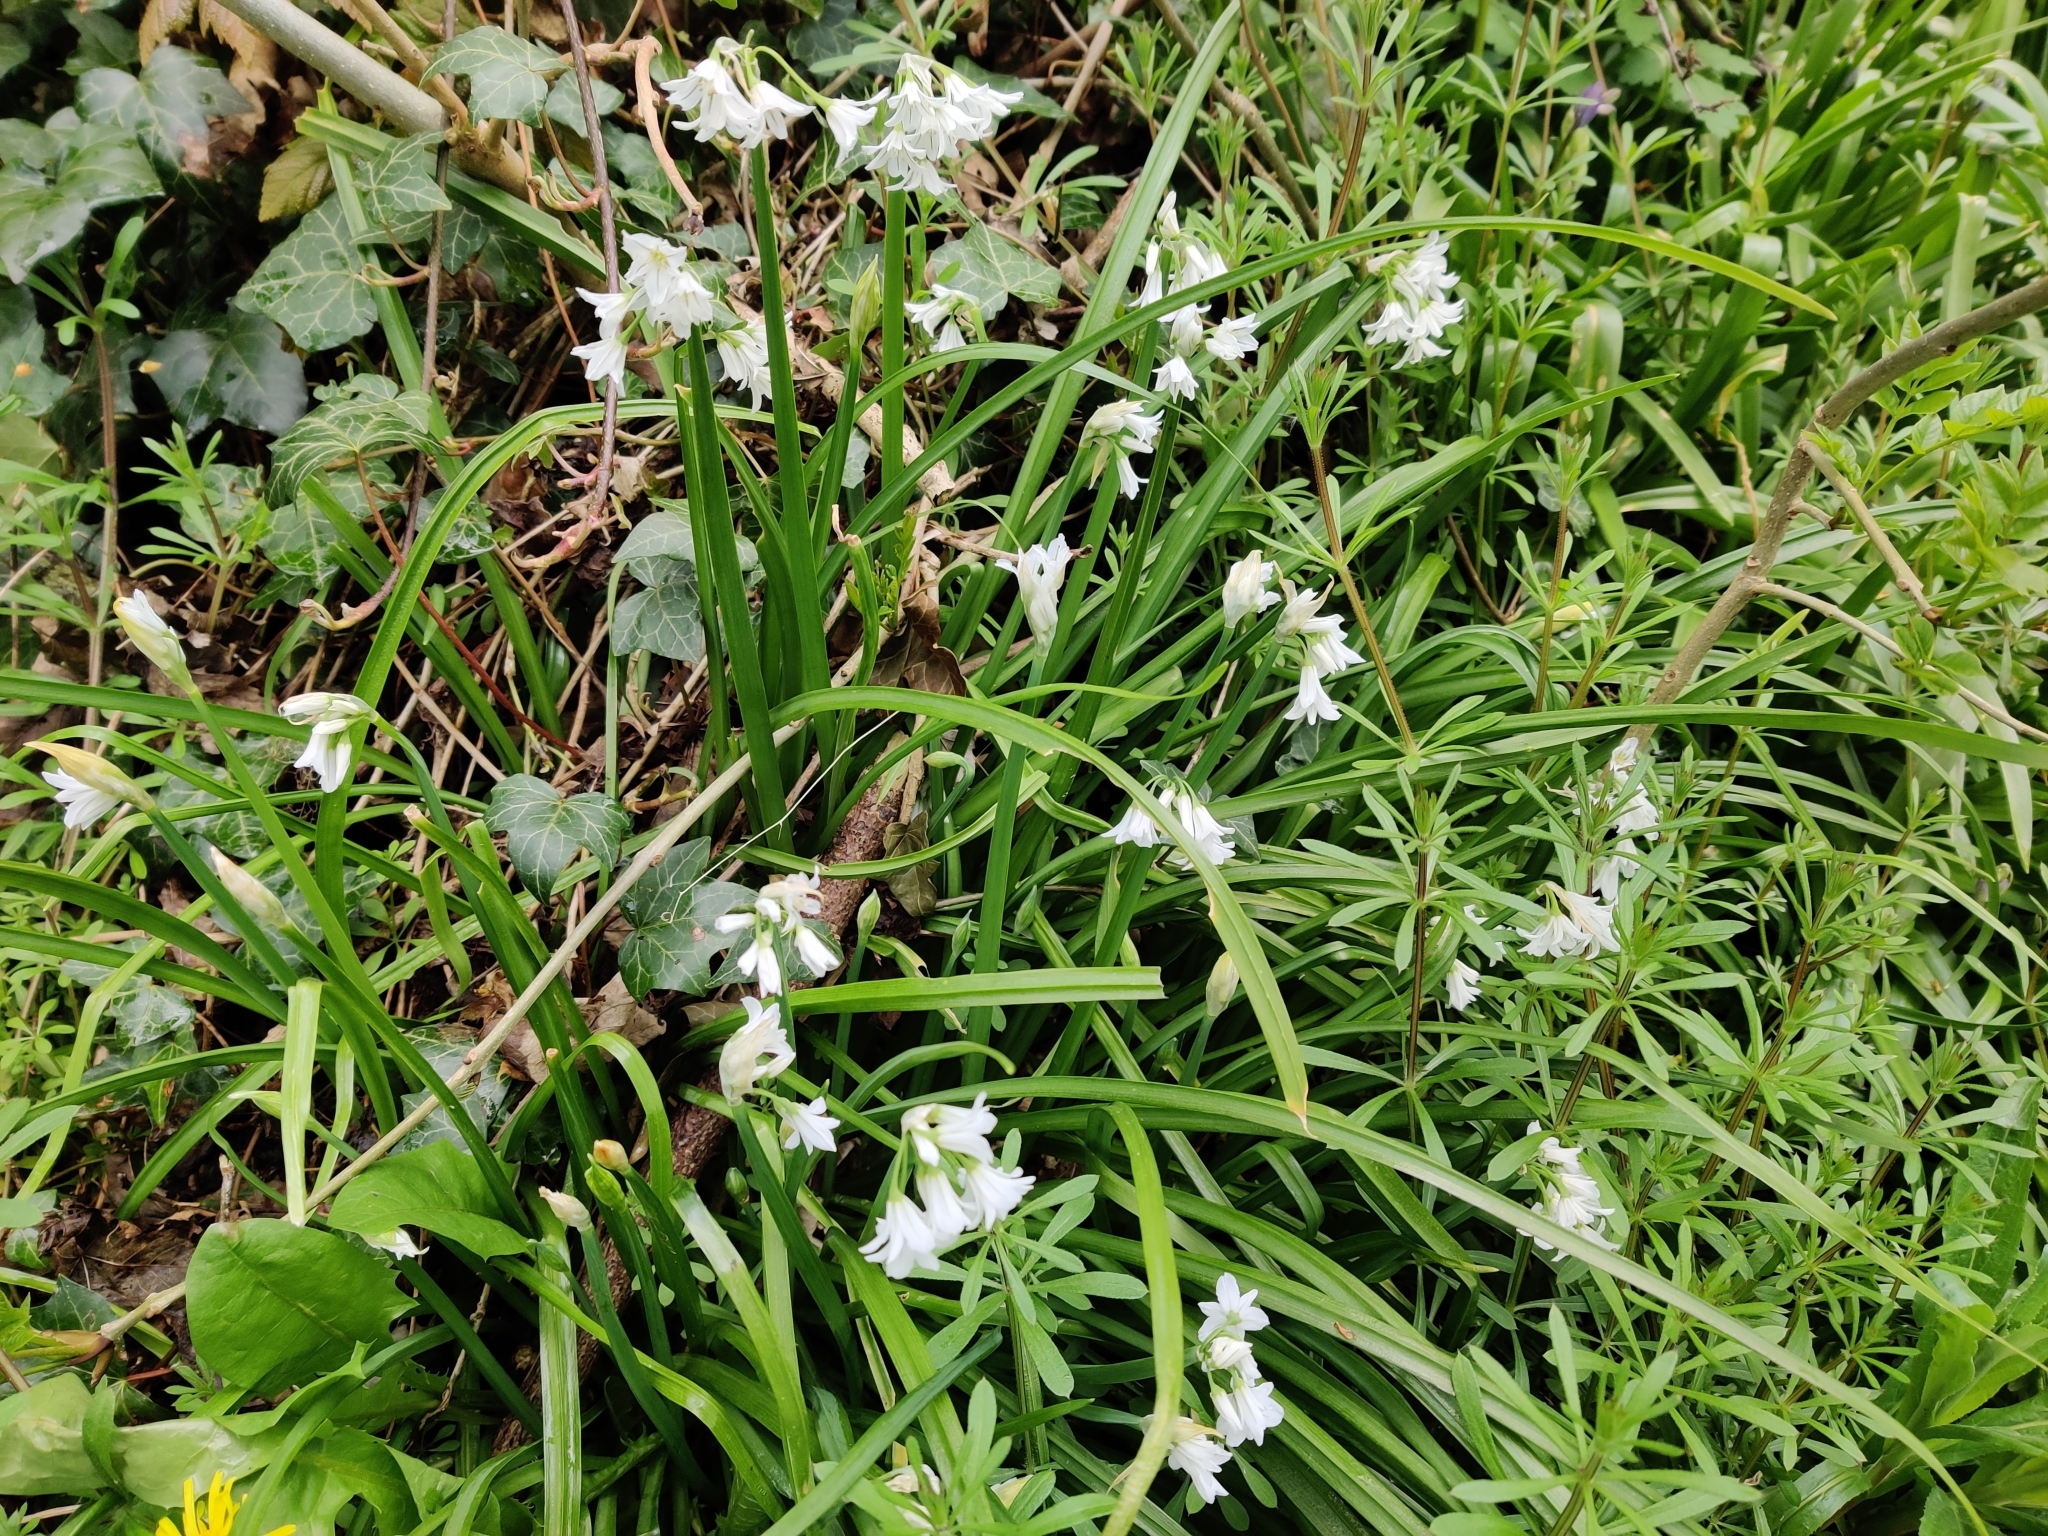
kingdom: Plantae
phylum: Tracheophyta
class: Liliopsida
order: Asparagales
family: Amaryllidaceae
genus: Allium
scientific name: Allium triquetrum
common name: Three-cornered garlic
